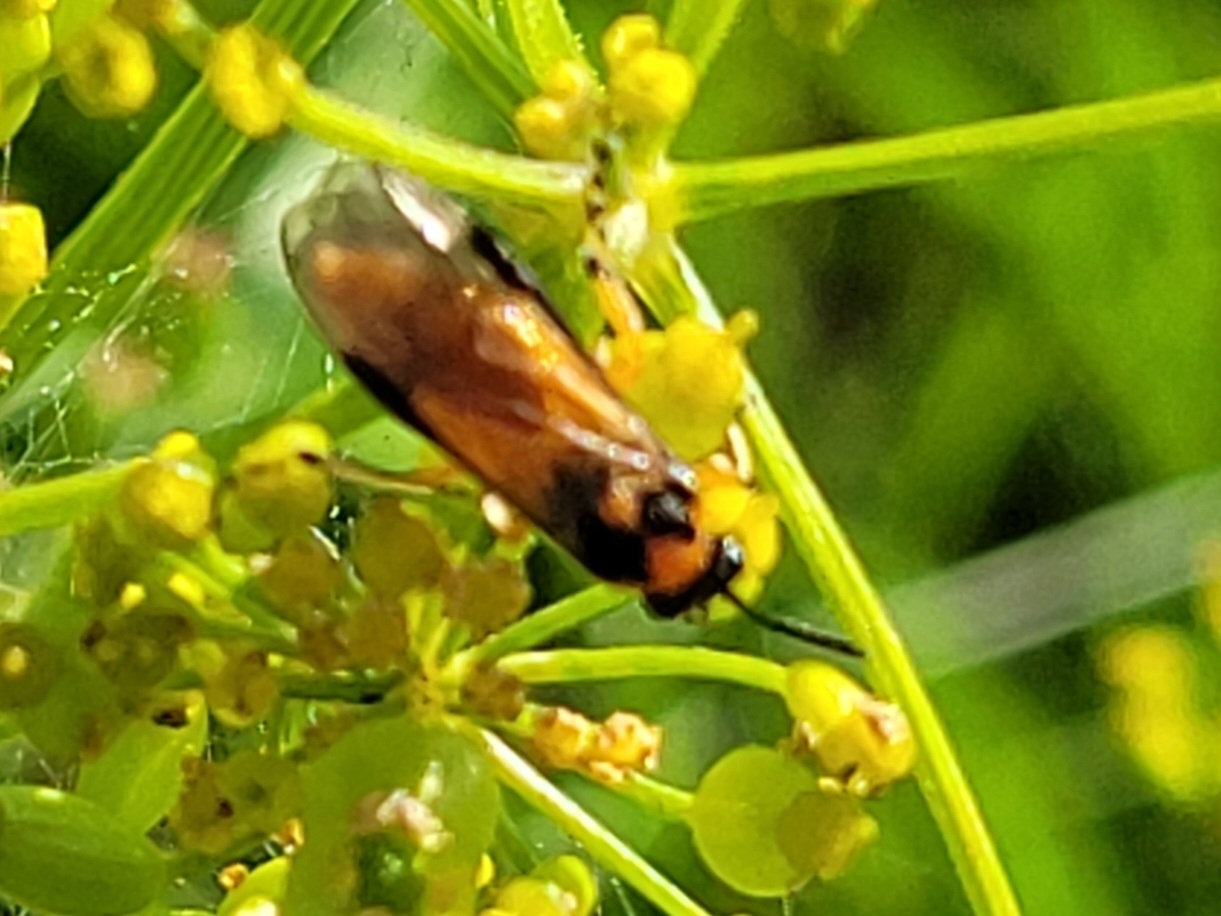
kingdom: Animalia
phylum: Arthropoda
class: Insecta
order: Hymenoptera
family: Tenthredinidae
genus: Athalia
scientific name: Athalia rosae
